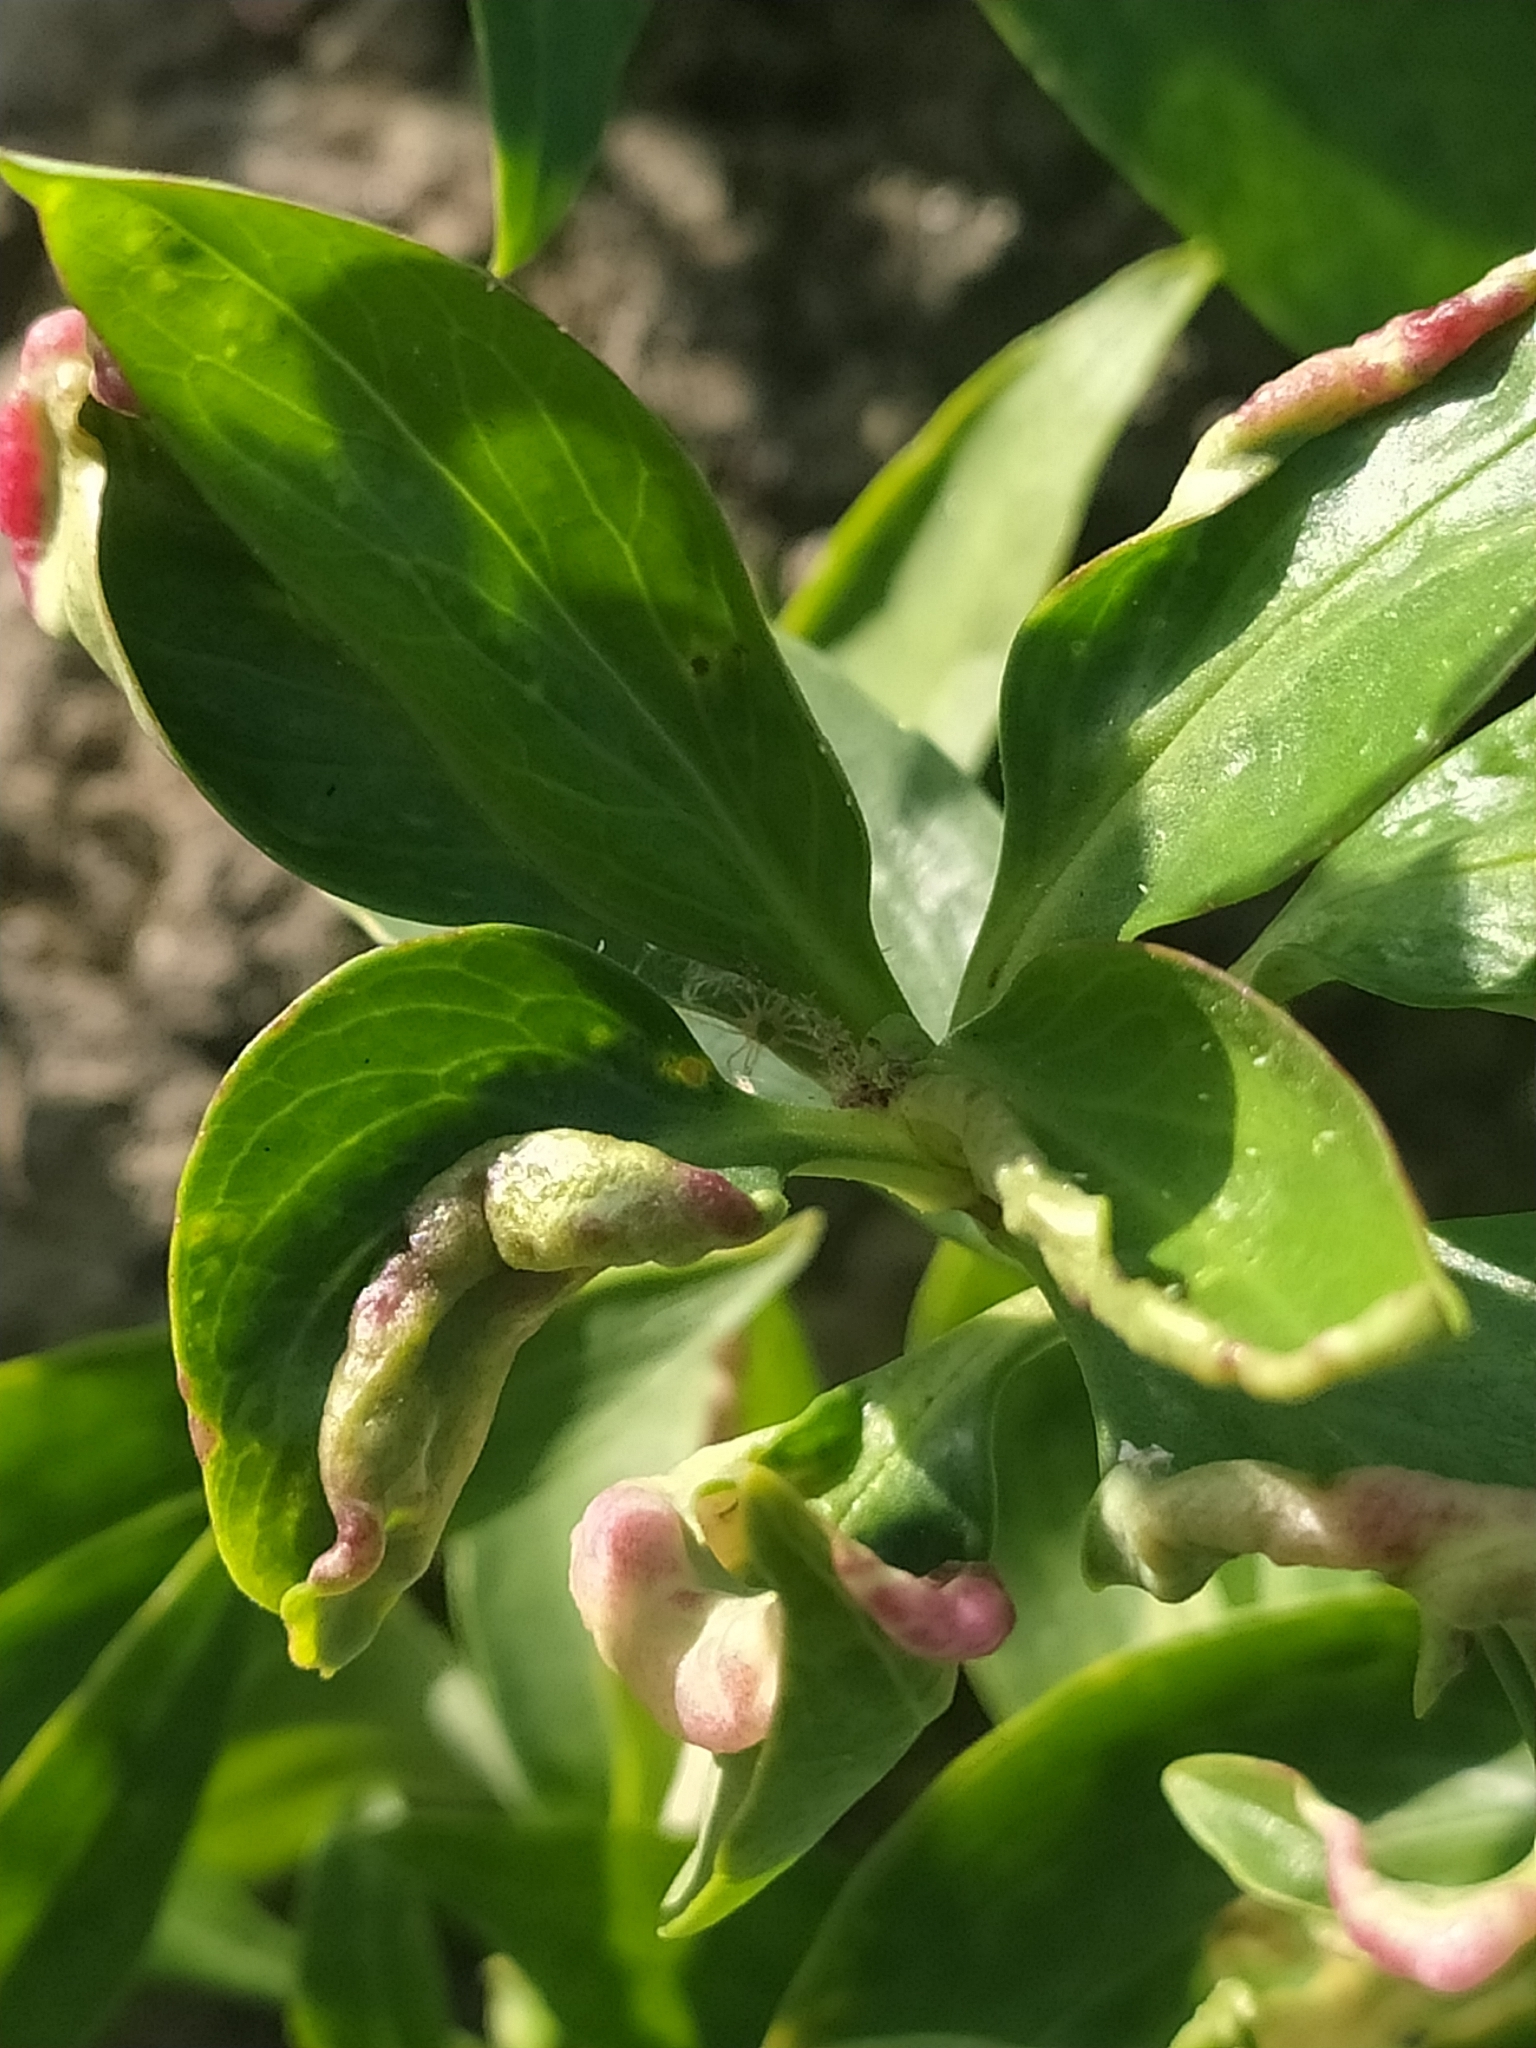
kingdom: Animalia
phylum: Arthropoda
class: Insecta
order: Hemiptera
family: Triozidae
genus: Trioza
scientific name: Trioza centranthi
